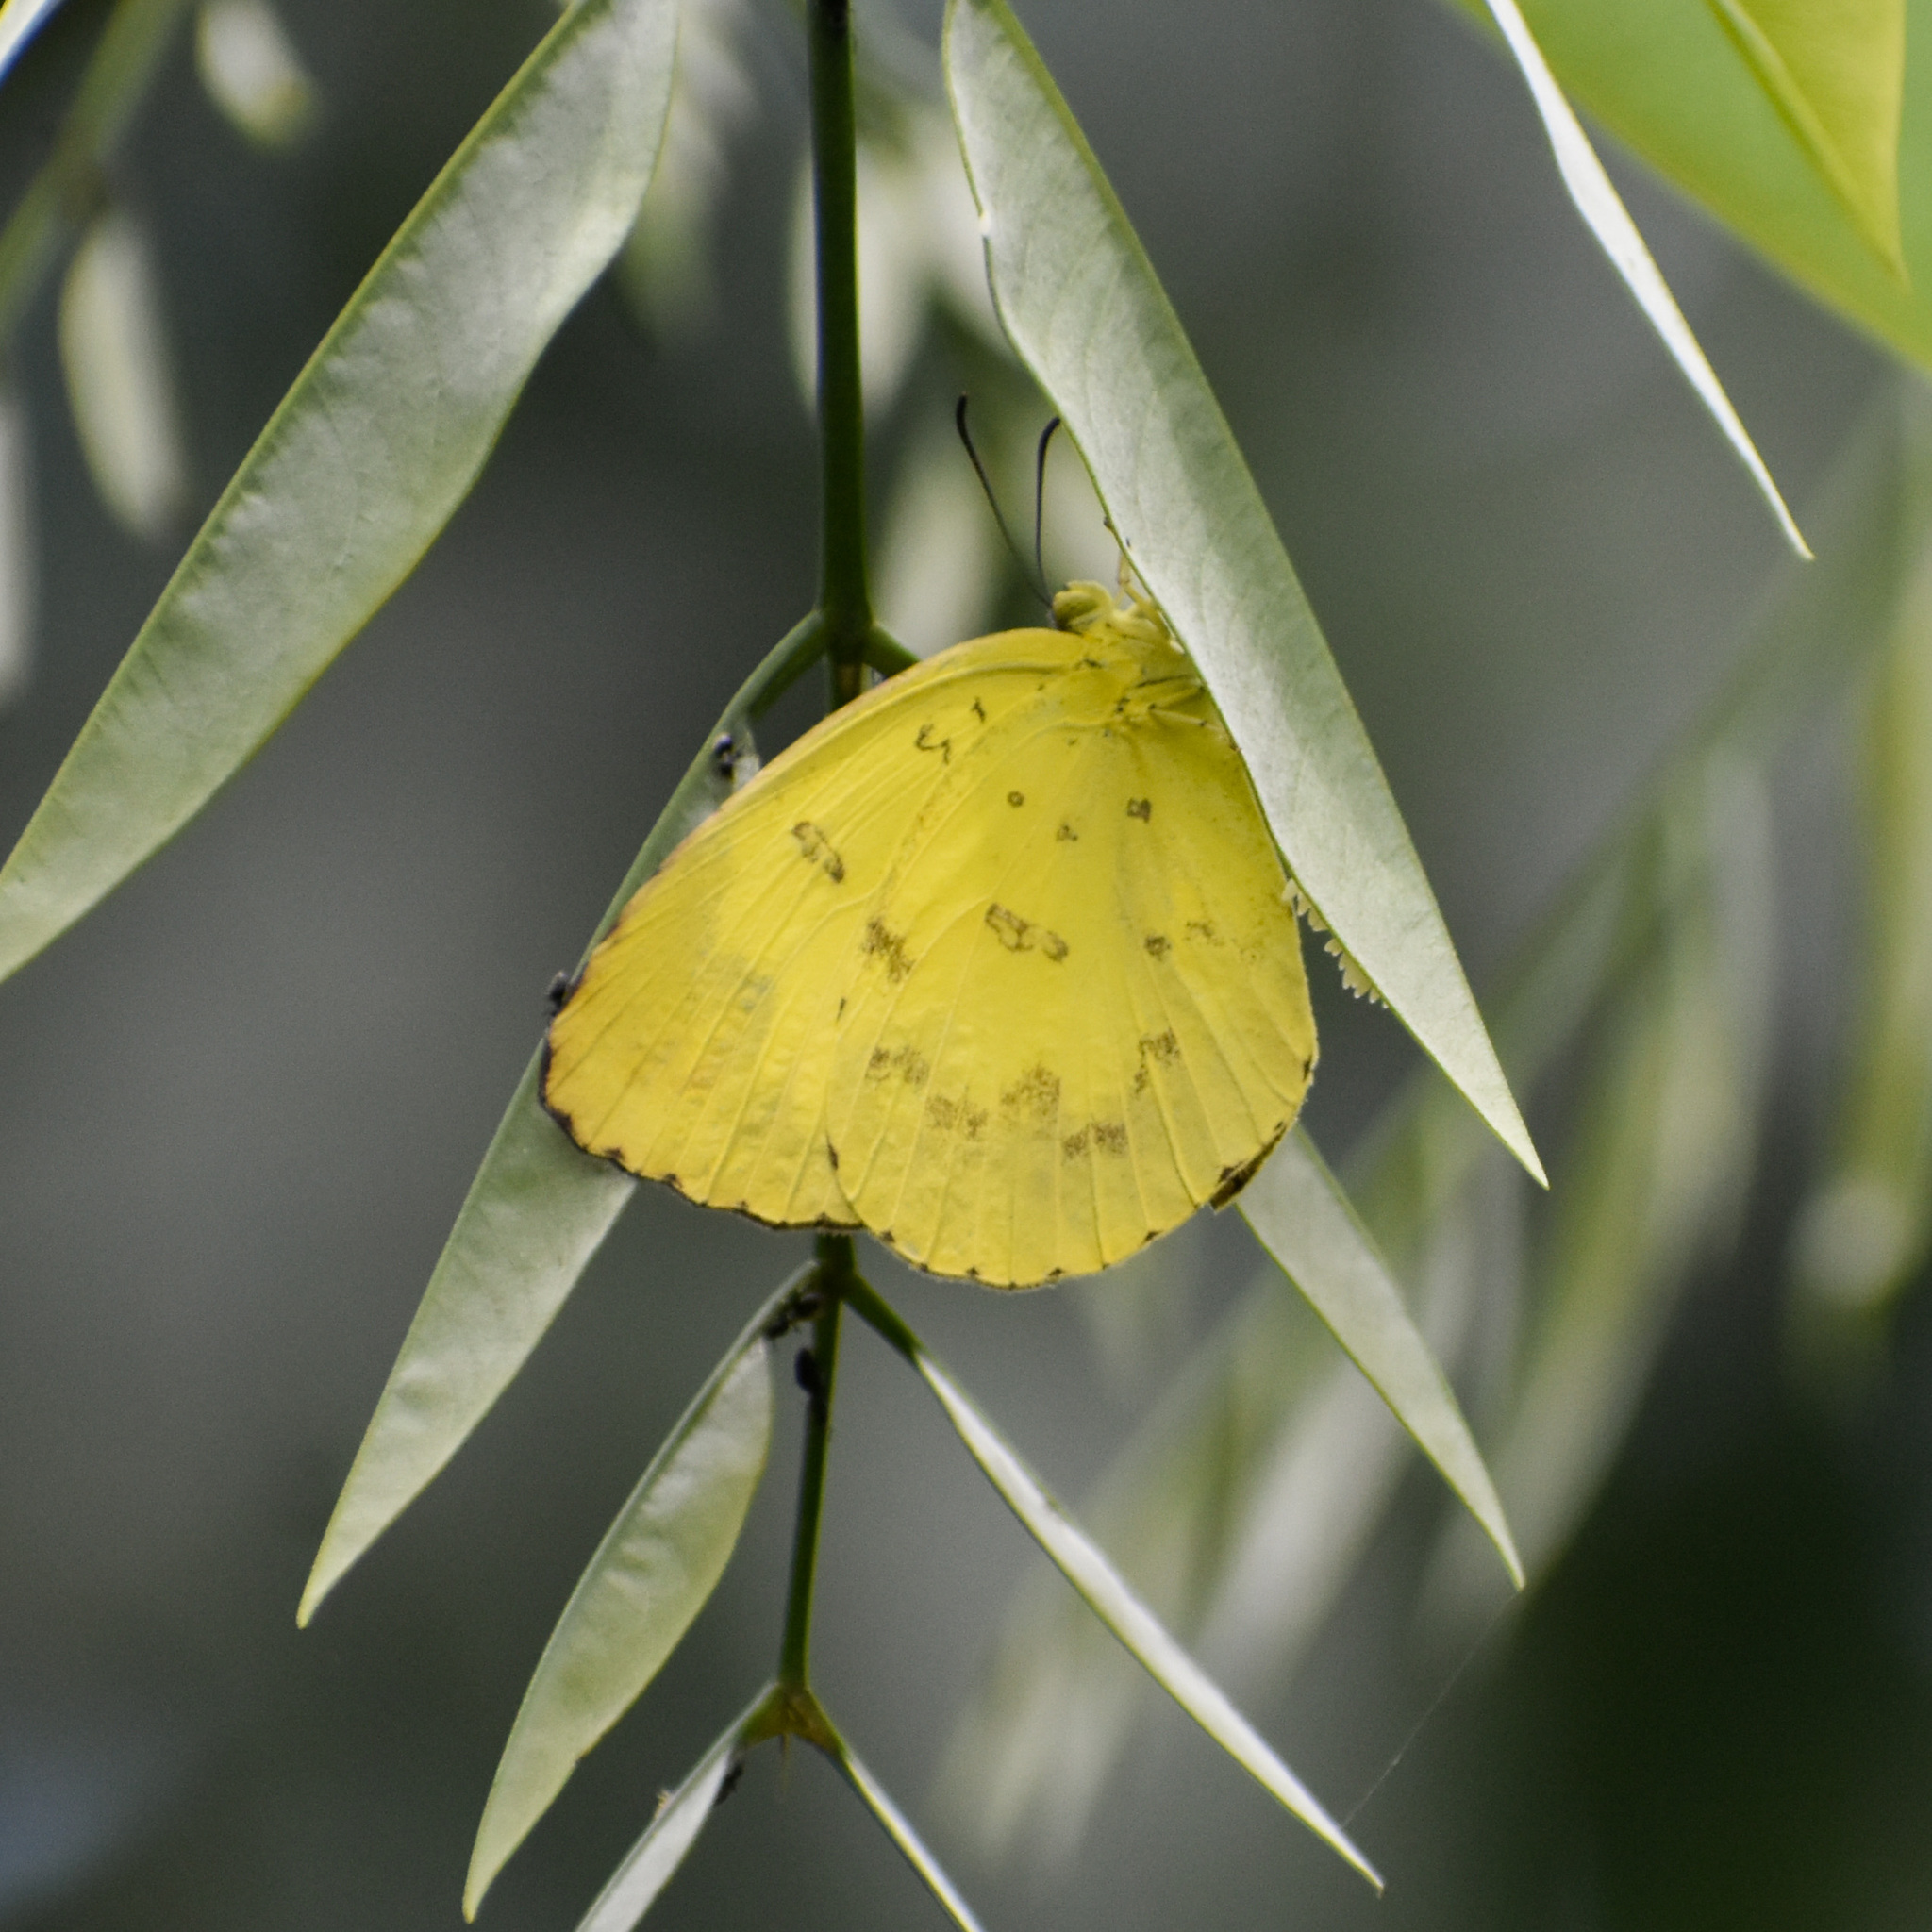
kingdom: Animalia
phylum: Arthropoda
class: Insecta
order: Lepidoptera
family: Pieridae
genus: Eurema
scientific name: Eurema blanda
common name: Three-spot grass yellow
